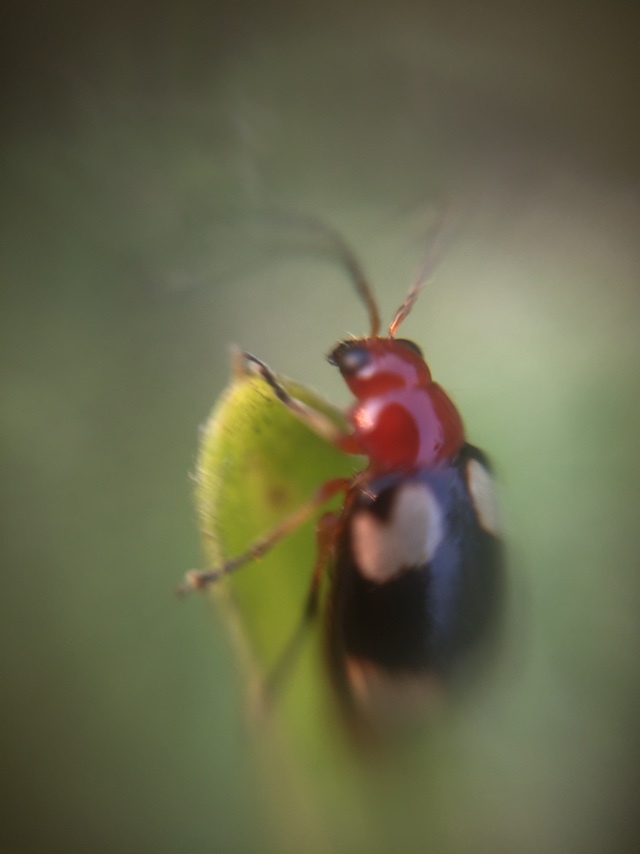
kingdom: Animalia
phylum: Arthropoda
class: Insecta
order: Coleoptera
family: Chrysomelidae
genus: Monolepta
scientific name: Monolepta signata
